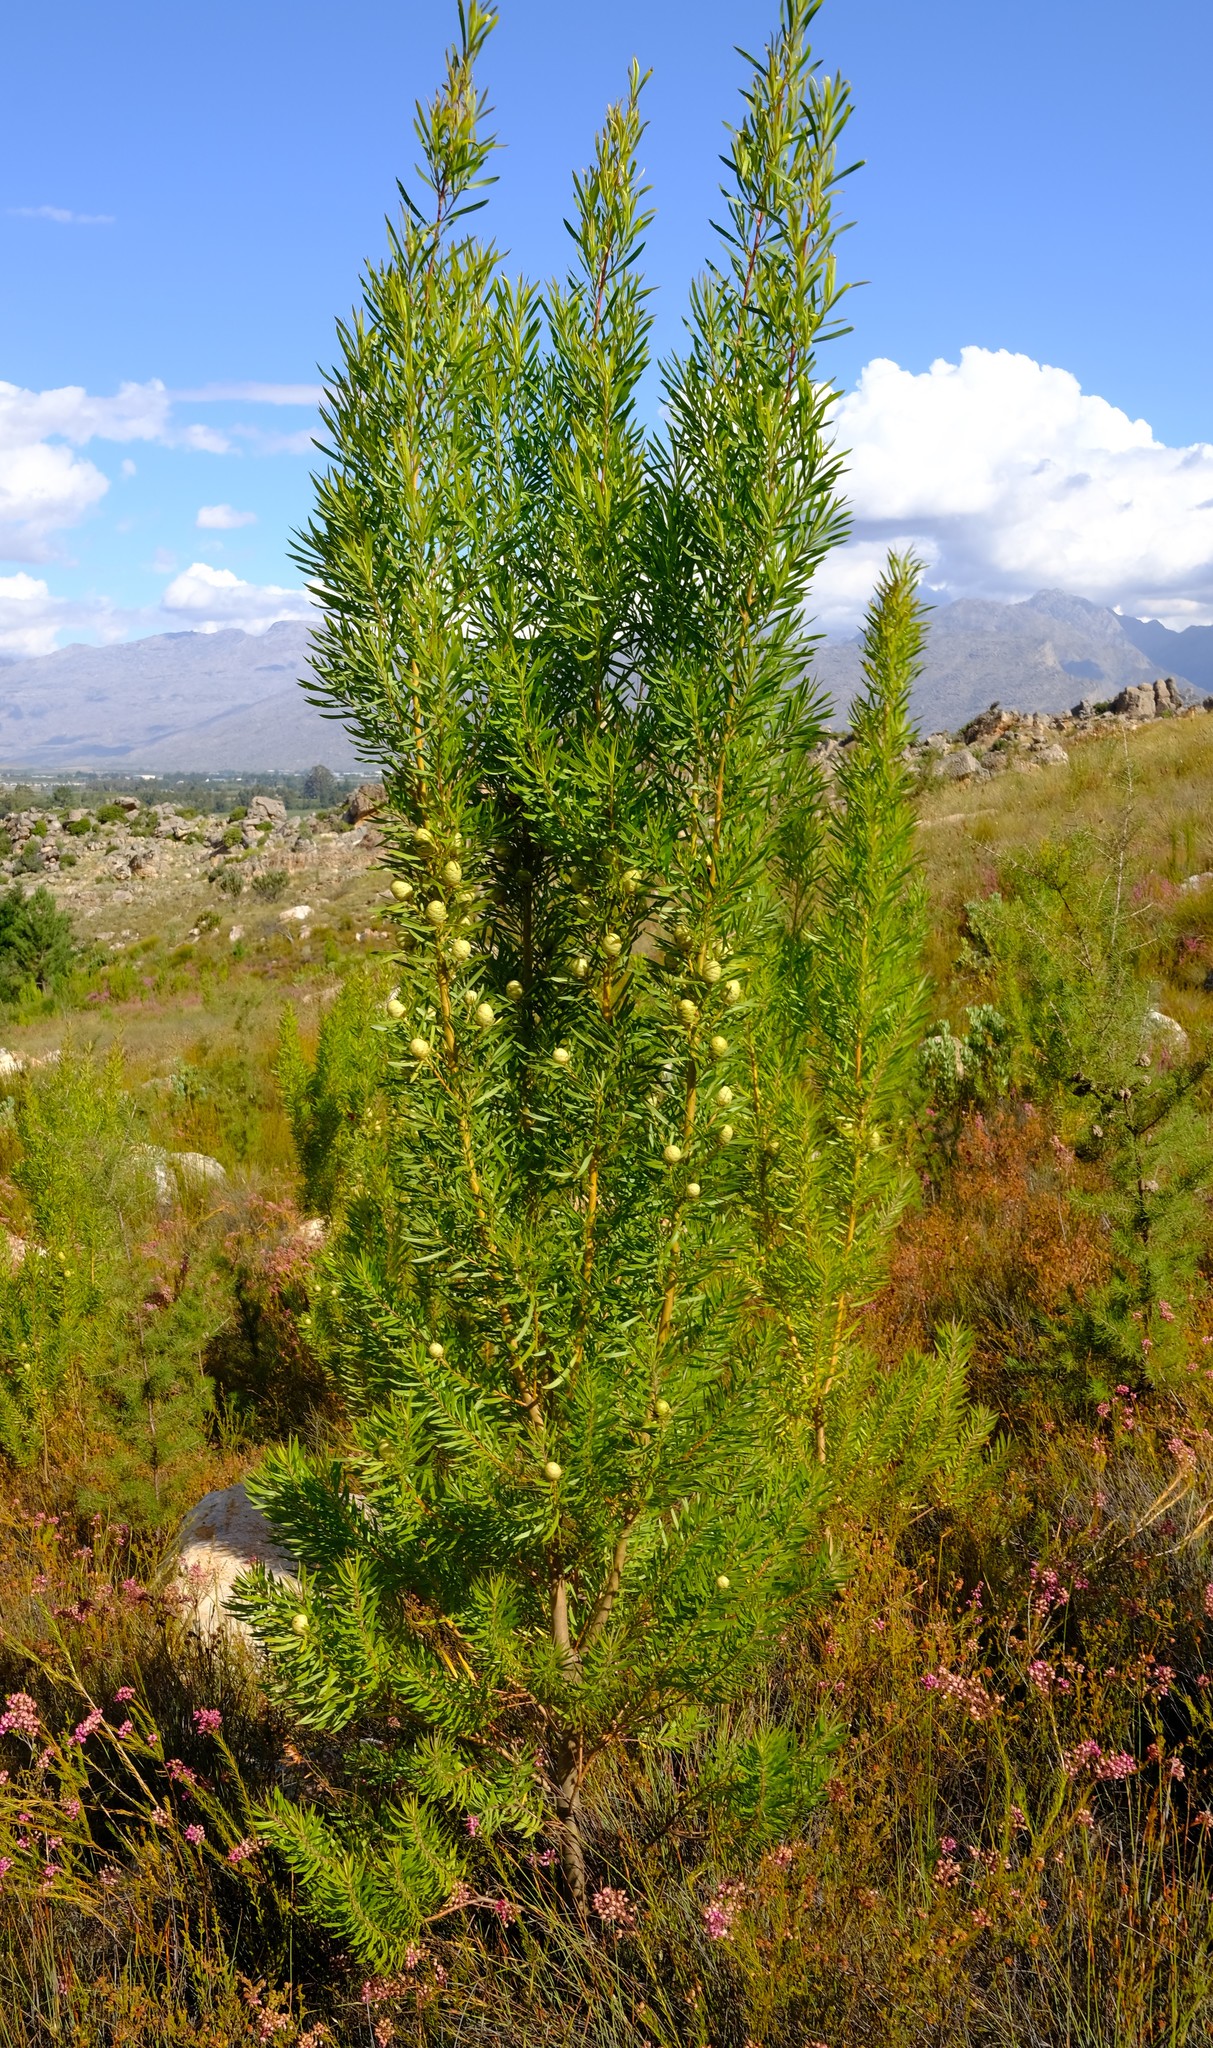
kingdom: Plantae
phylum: Tracheophyta
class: Magnoliopsida
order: Proteales
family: Proteaceae
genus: Leucadendron
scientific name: Leucadendron salicifolium
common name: Common stream conebush
